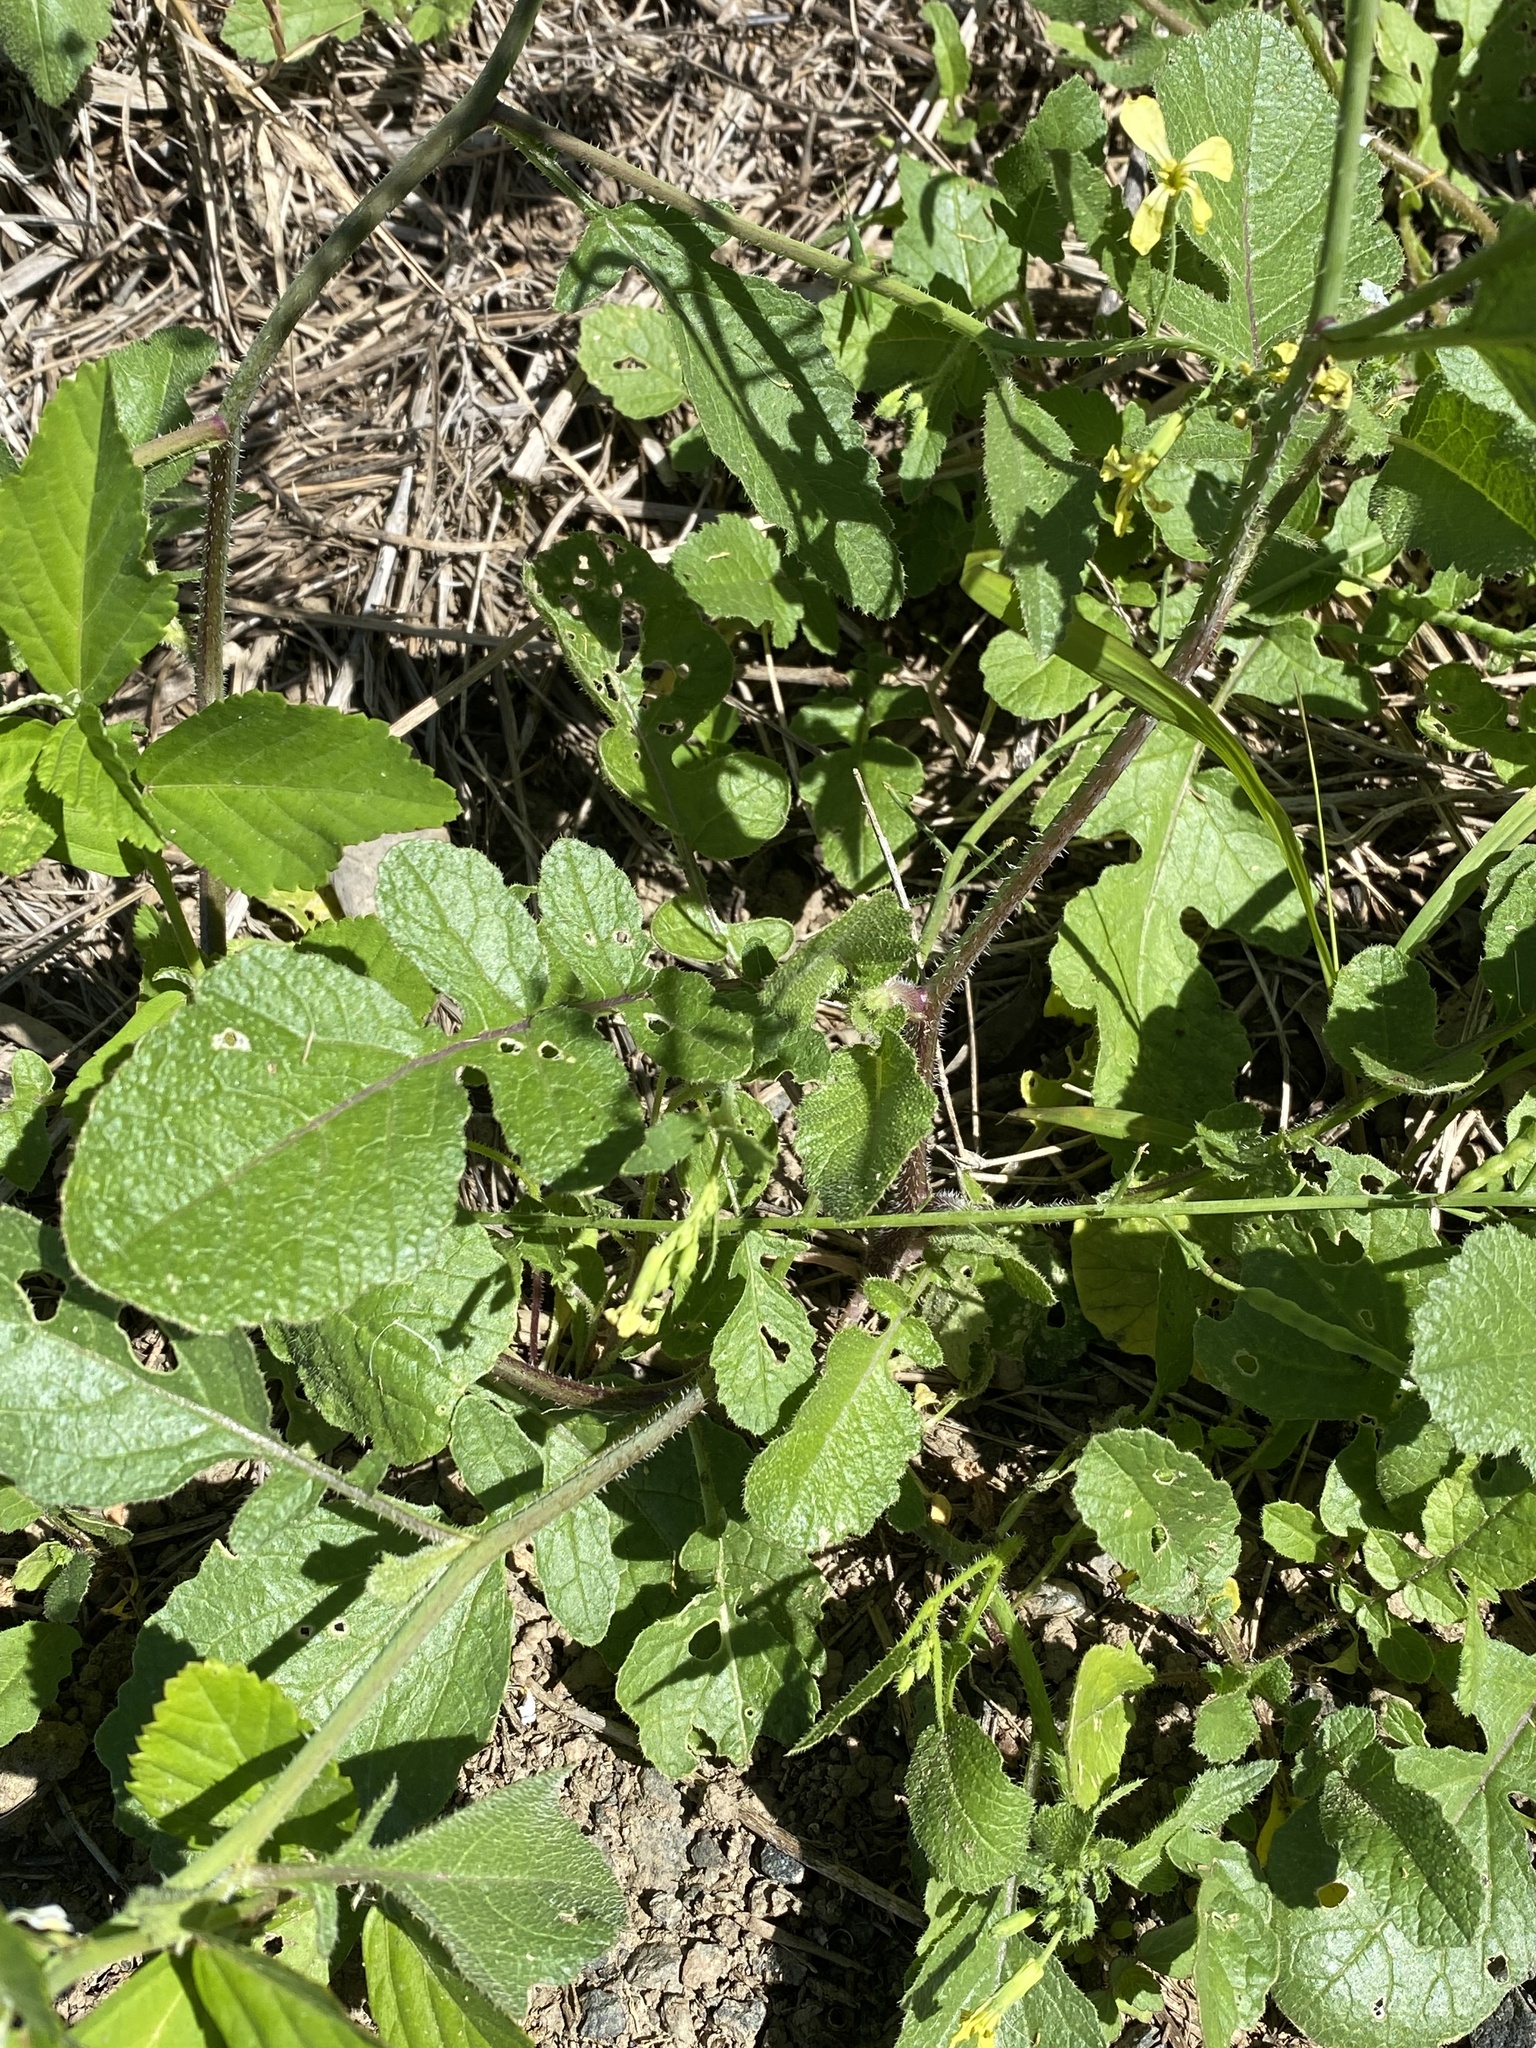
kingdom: Plantae
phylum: Tracheophyta
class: Magnoliopsida
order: Brassicales
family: Brassicaceae
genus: Raphanus
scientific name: Raphanus raphanistrum
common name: Wild radish
